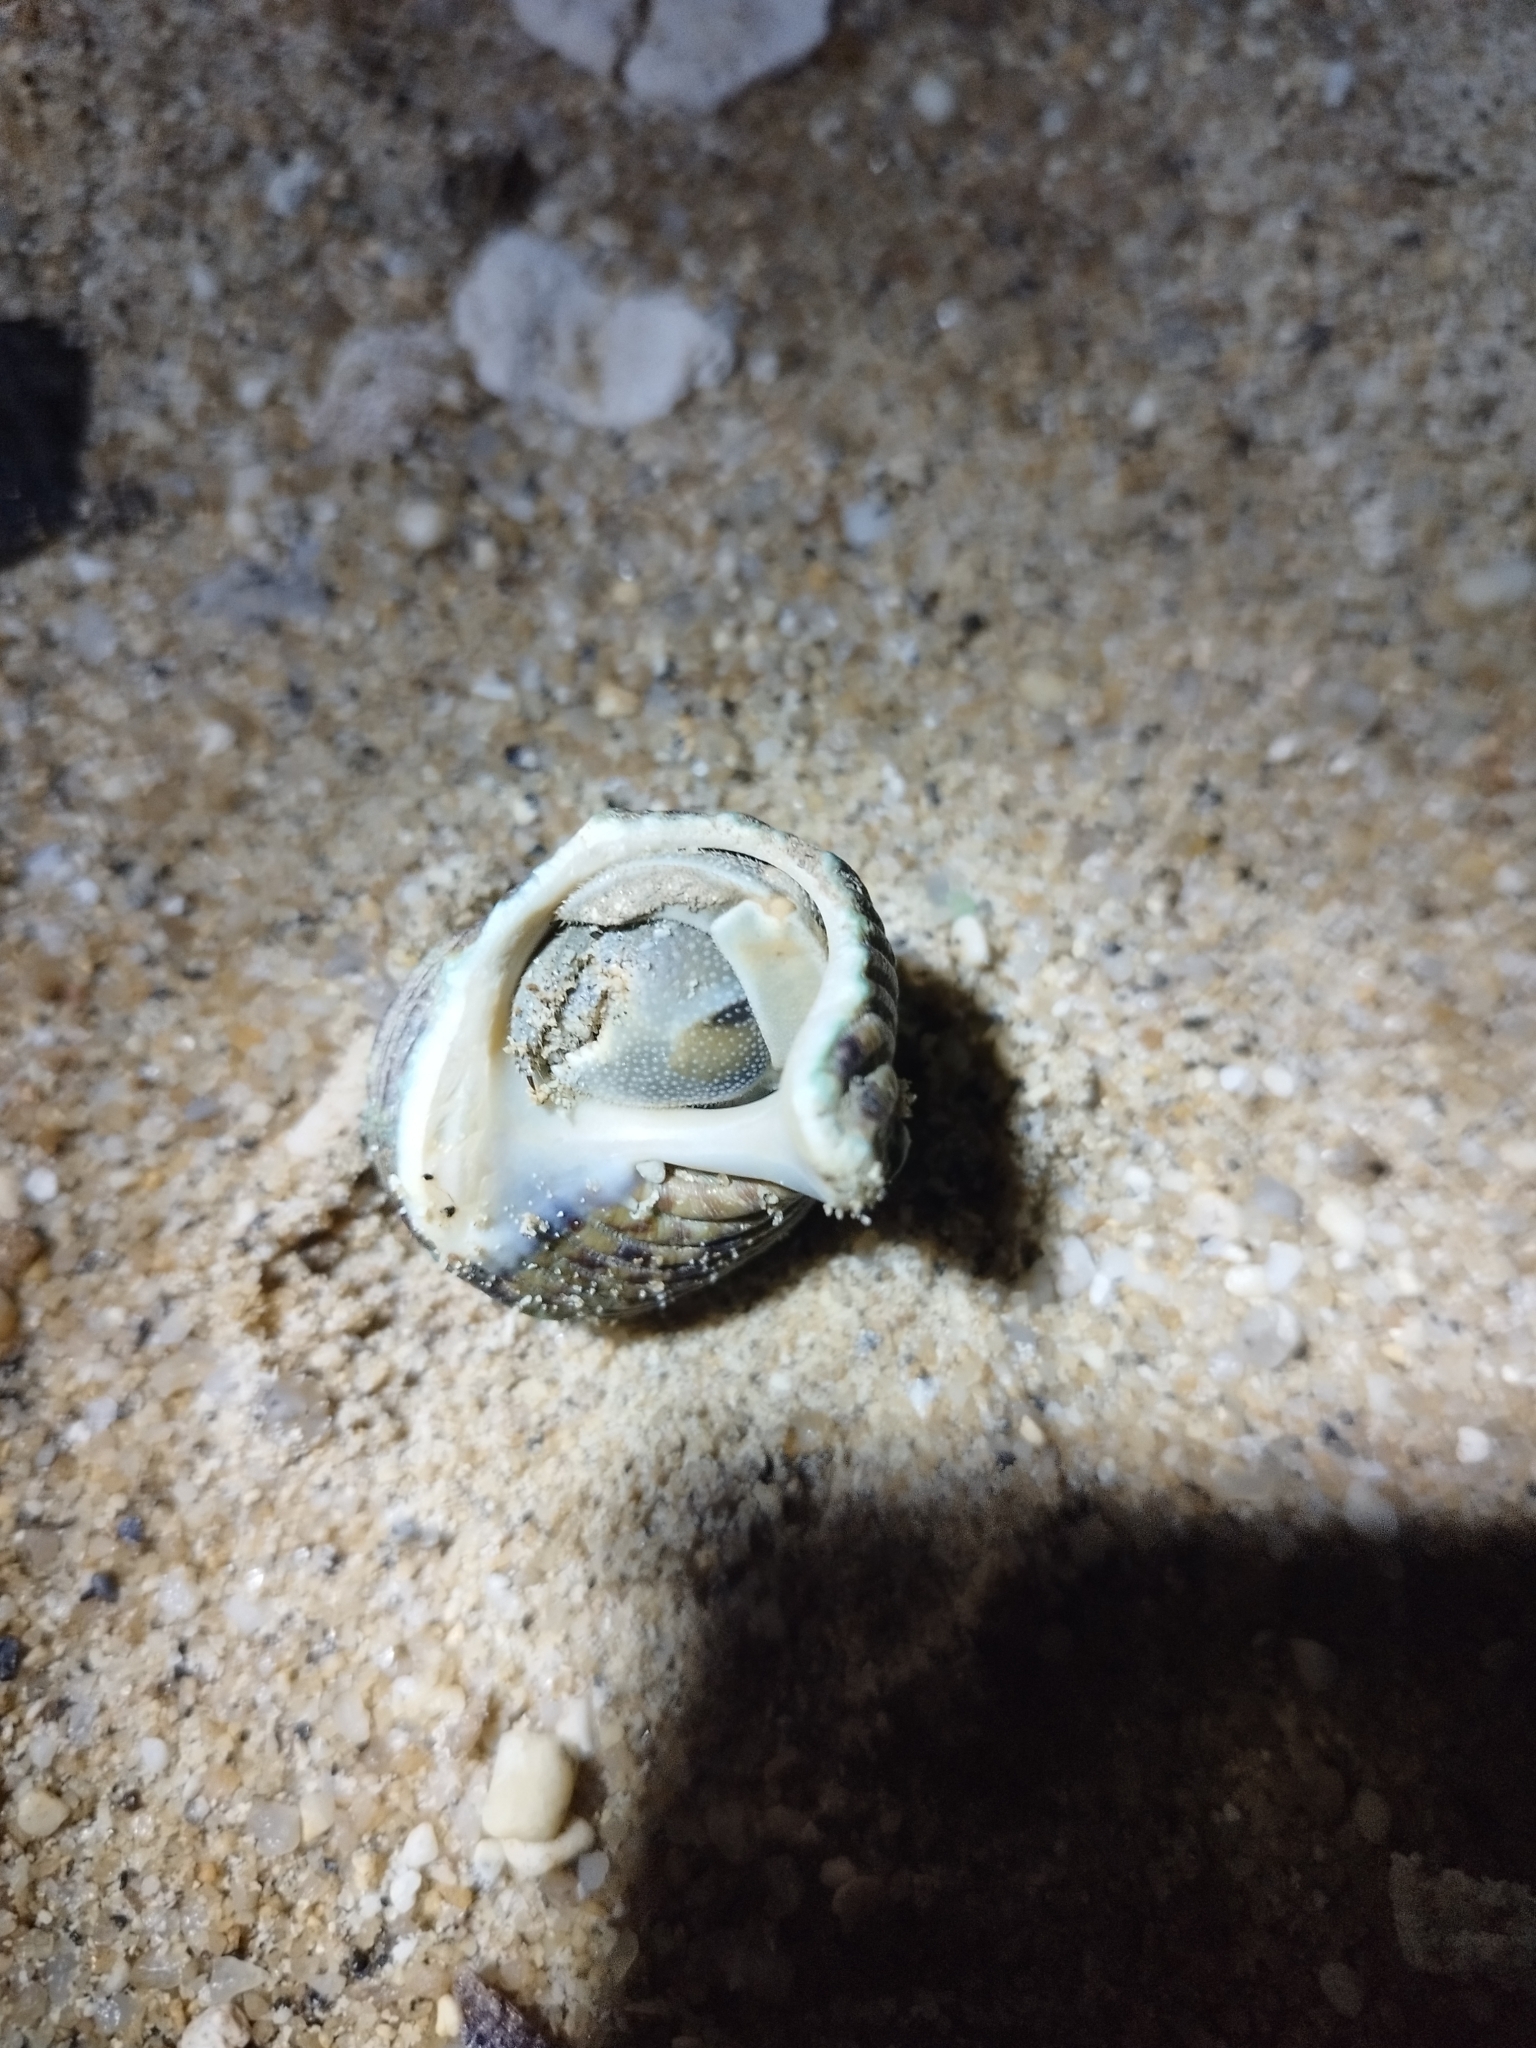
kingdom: Animalia
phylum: Arthropoda
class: Malacostraca
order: Decapoda
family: Coenobitidae
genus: Coenobita
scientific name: Coenobita rugosus
